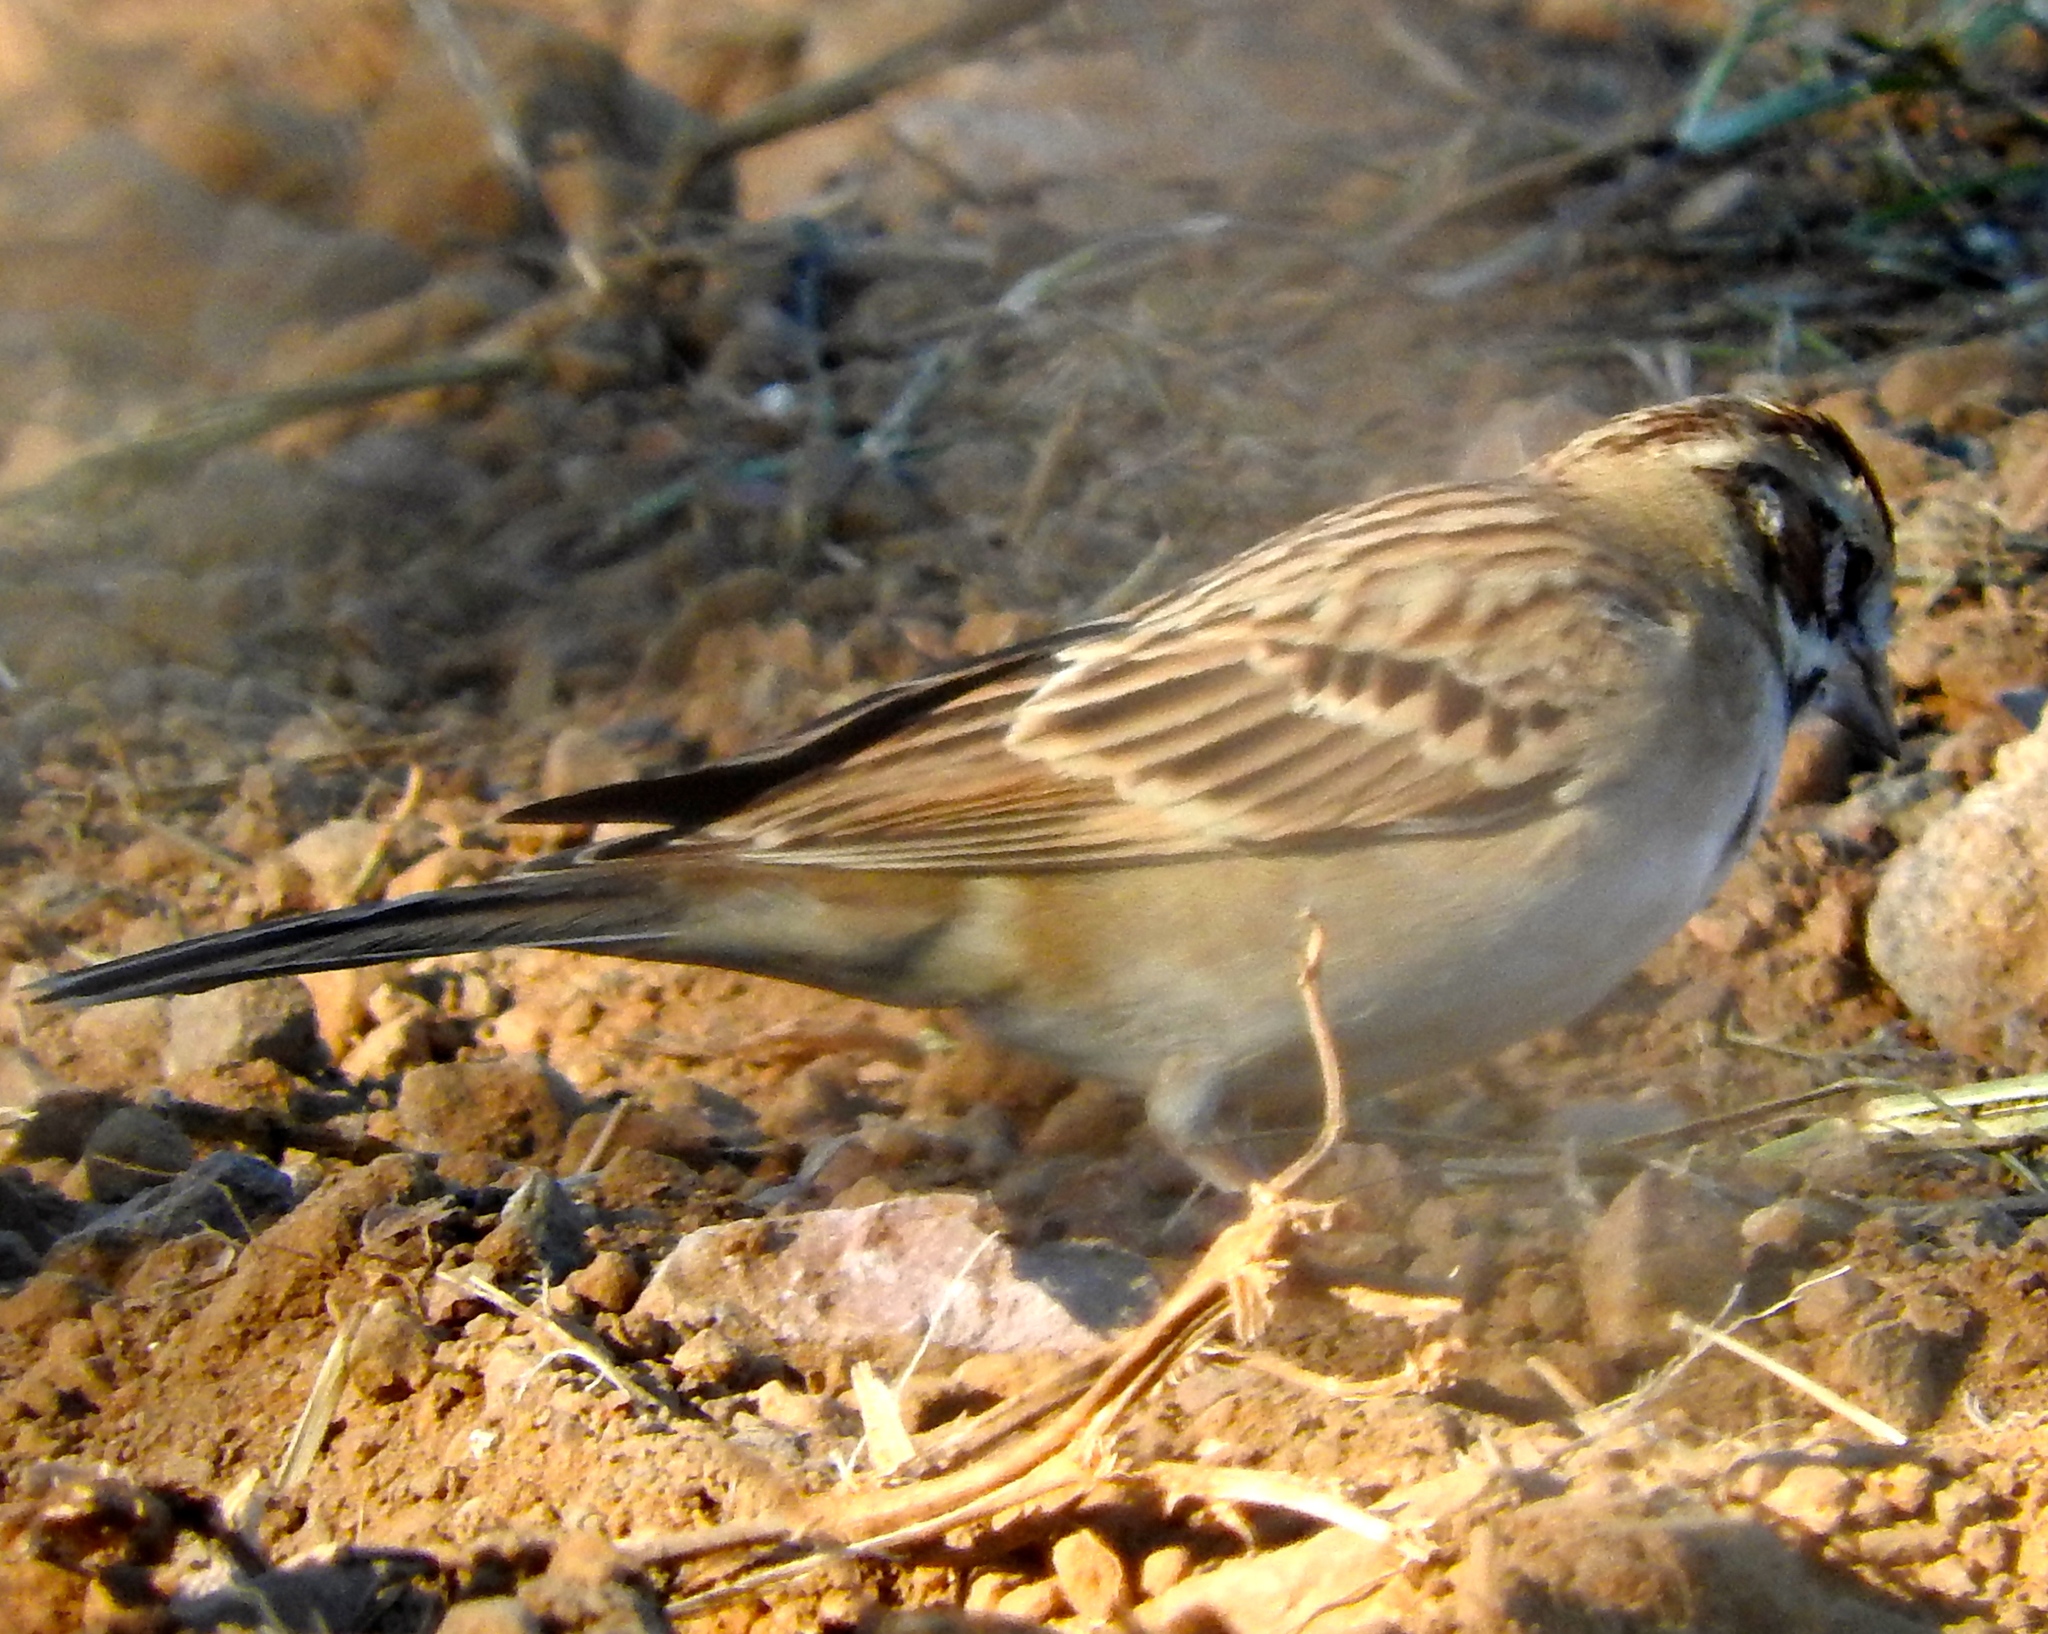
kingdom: Animalia
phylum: Chordata
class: Aves
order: Passeriformes
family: Passerellidae
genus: Chondestes
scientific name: Chondestes grammacus
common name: Lark sparrow
